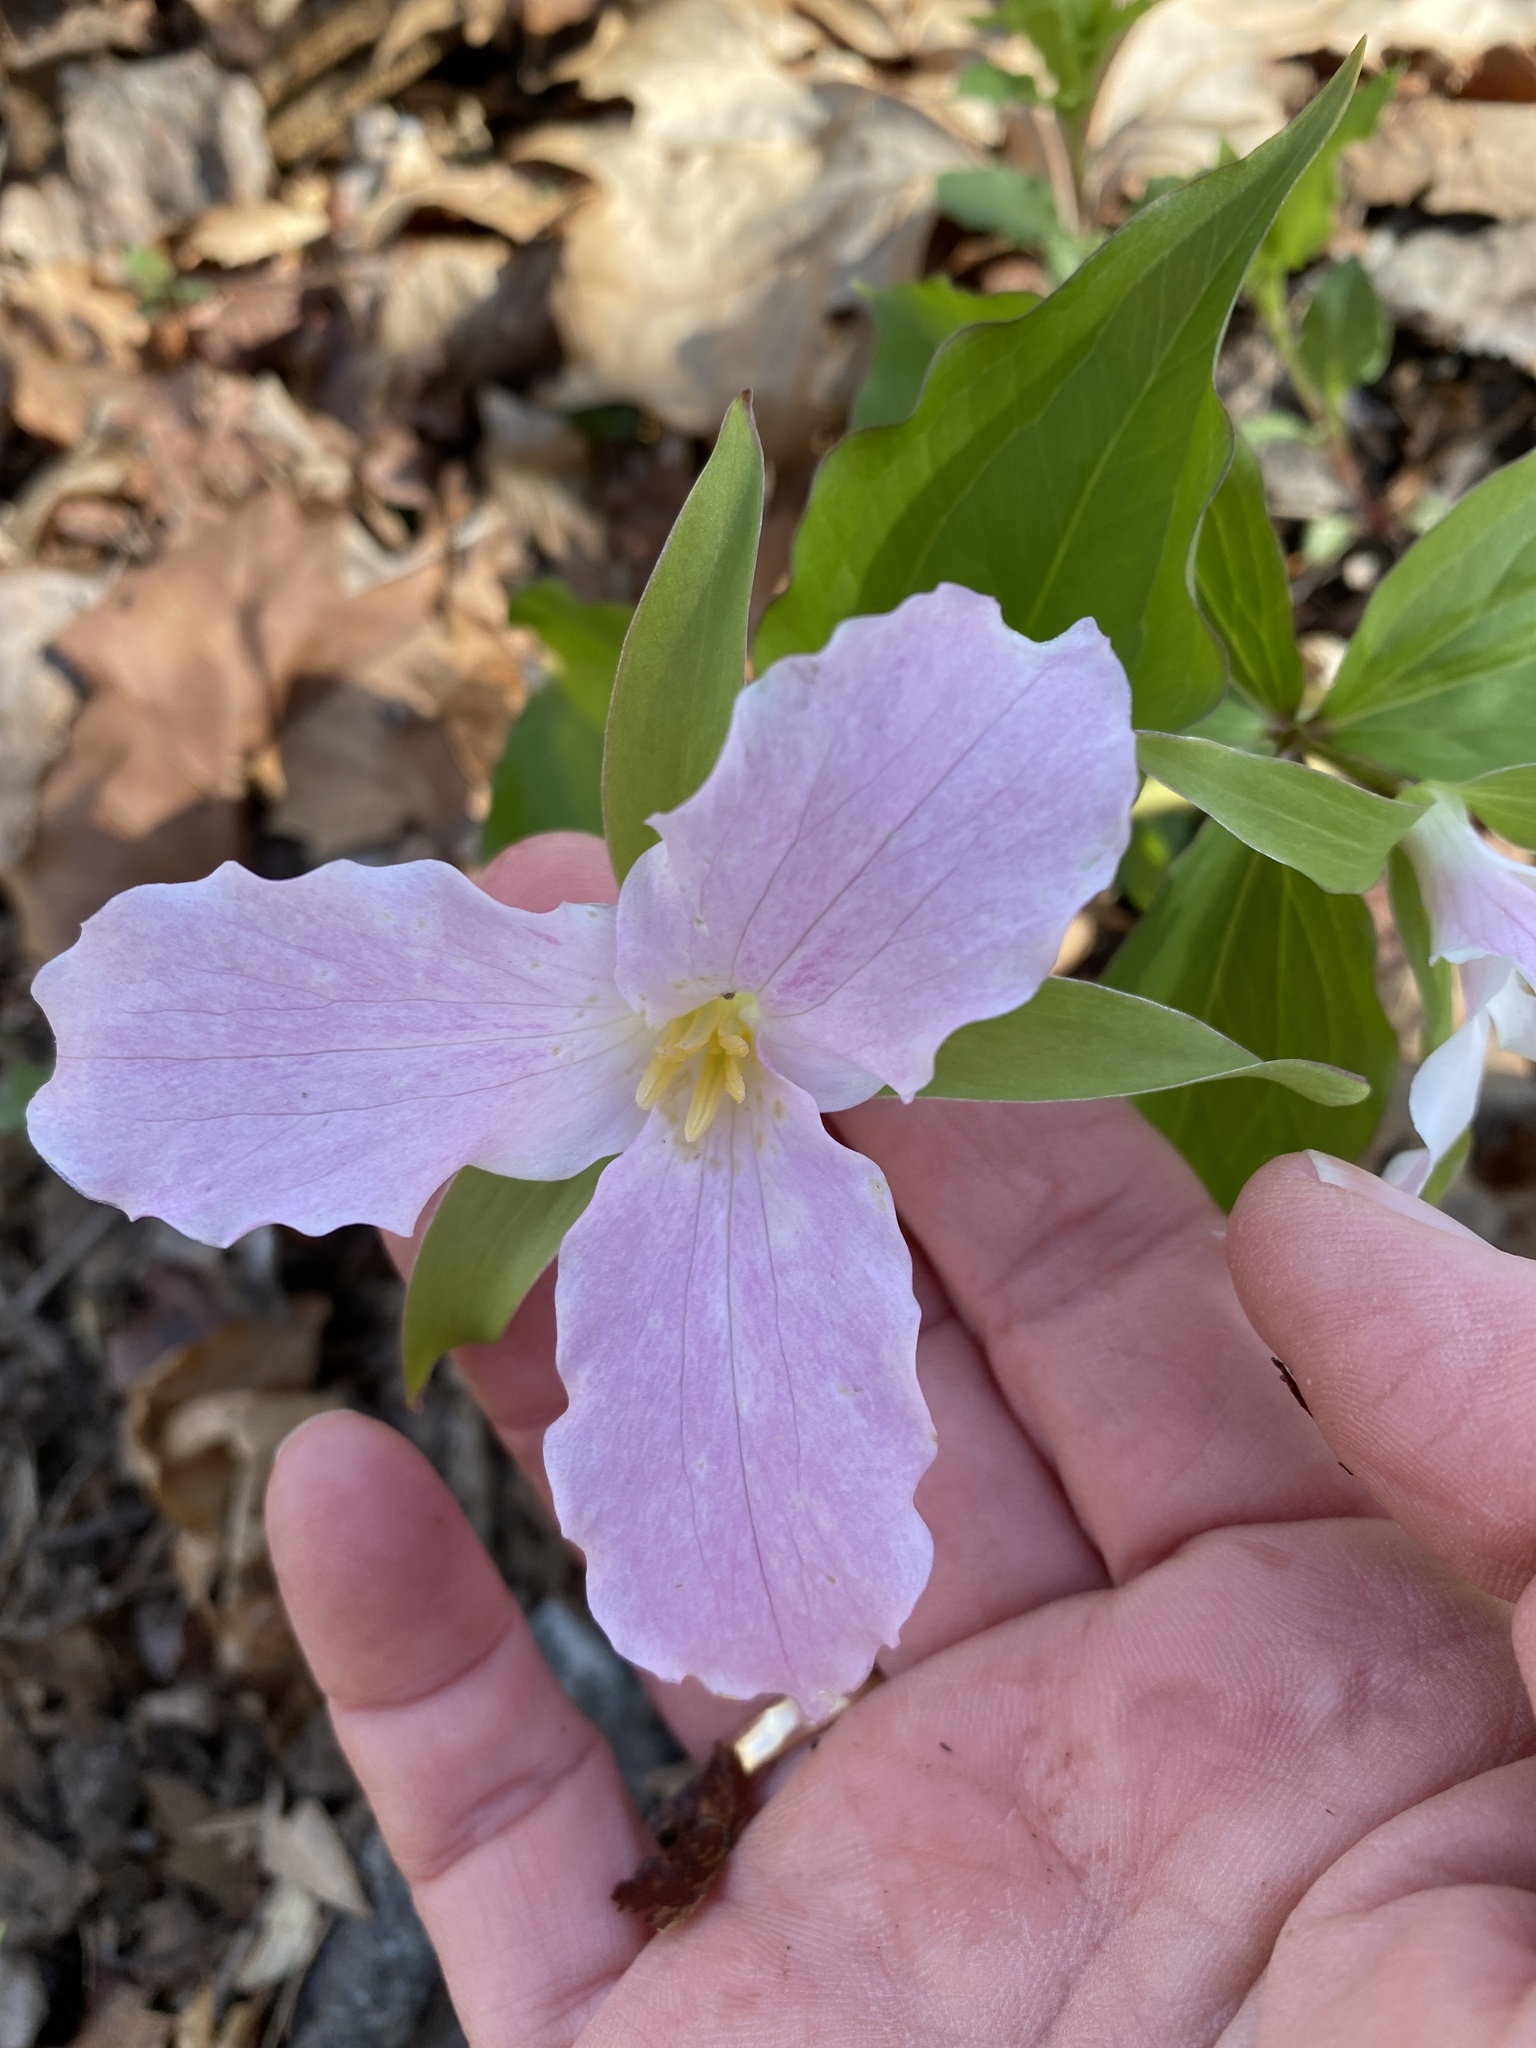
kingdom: Plantae
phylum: Tracheophyta
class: Liliopsida
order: Liliales
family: Melanthiaceae
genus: Trillium
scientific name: Trillium grandiflorum
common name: Great white trillium
